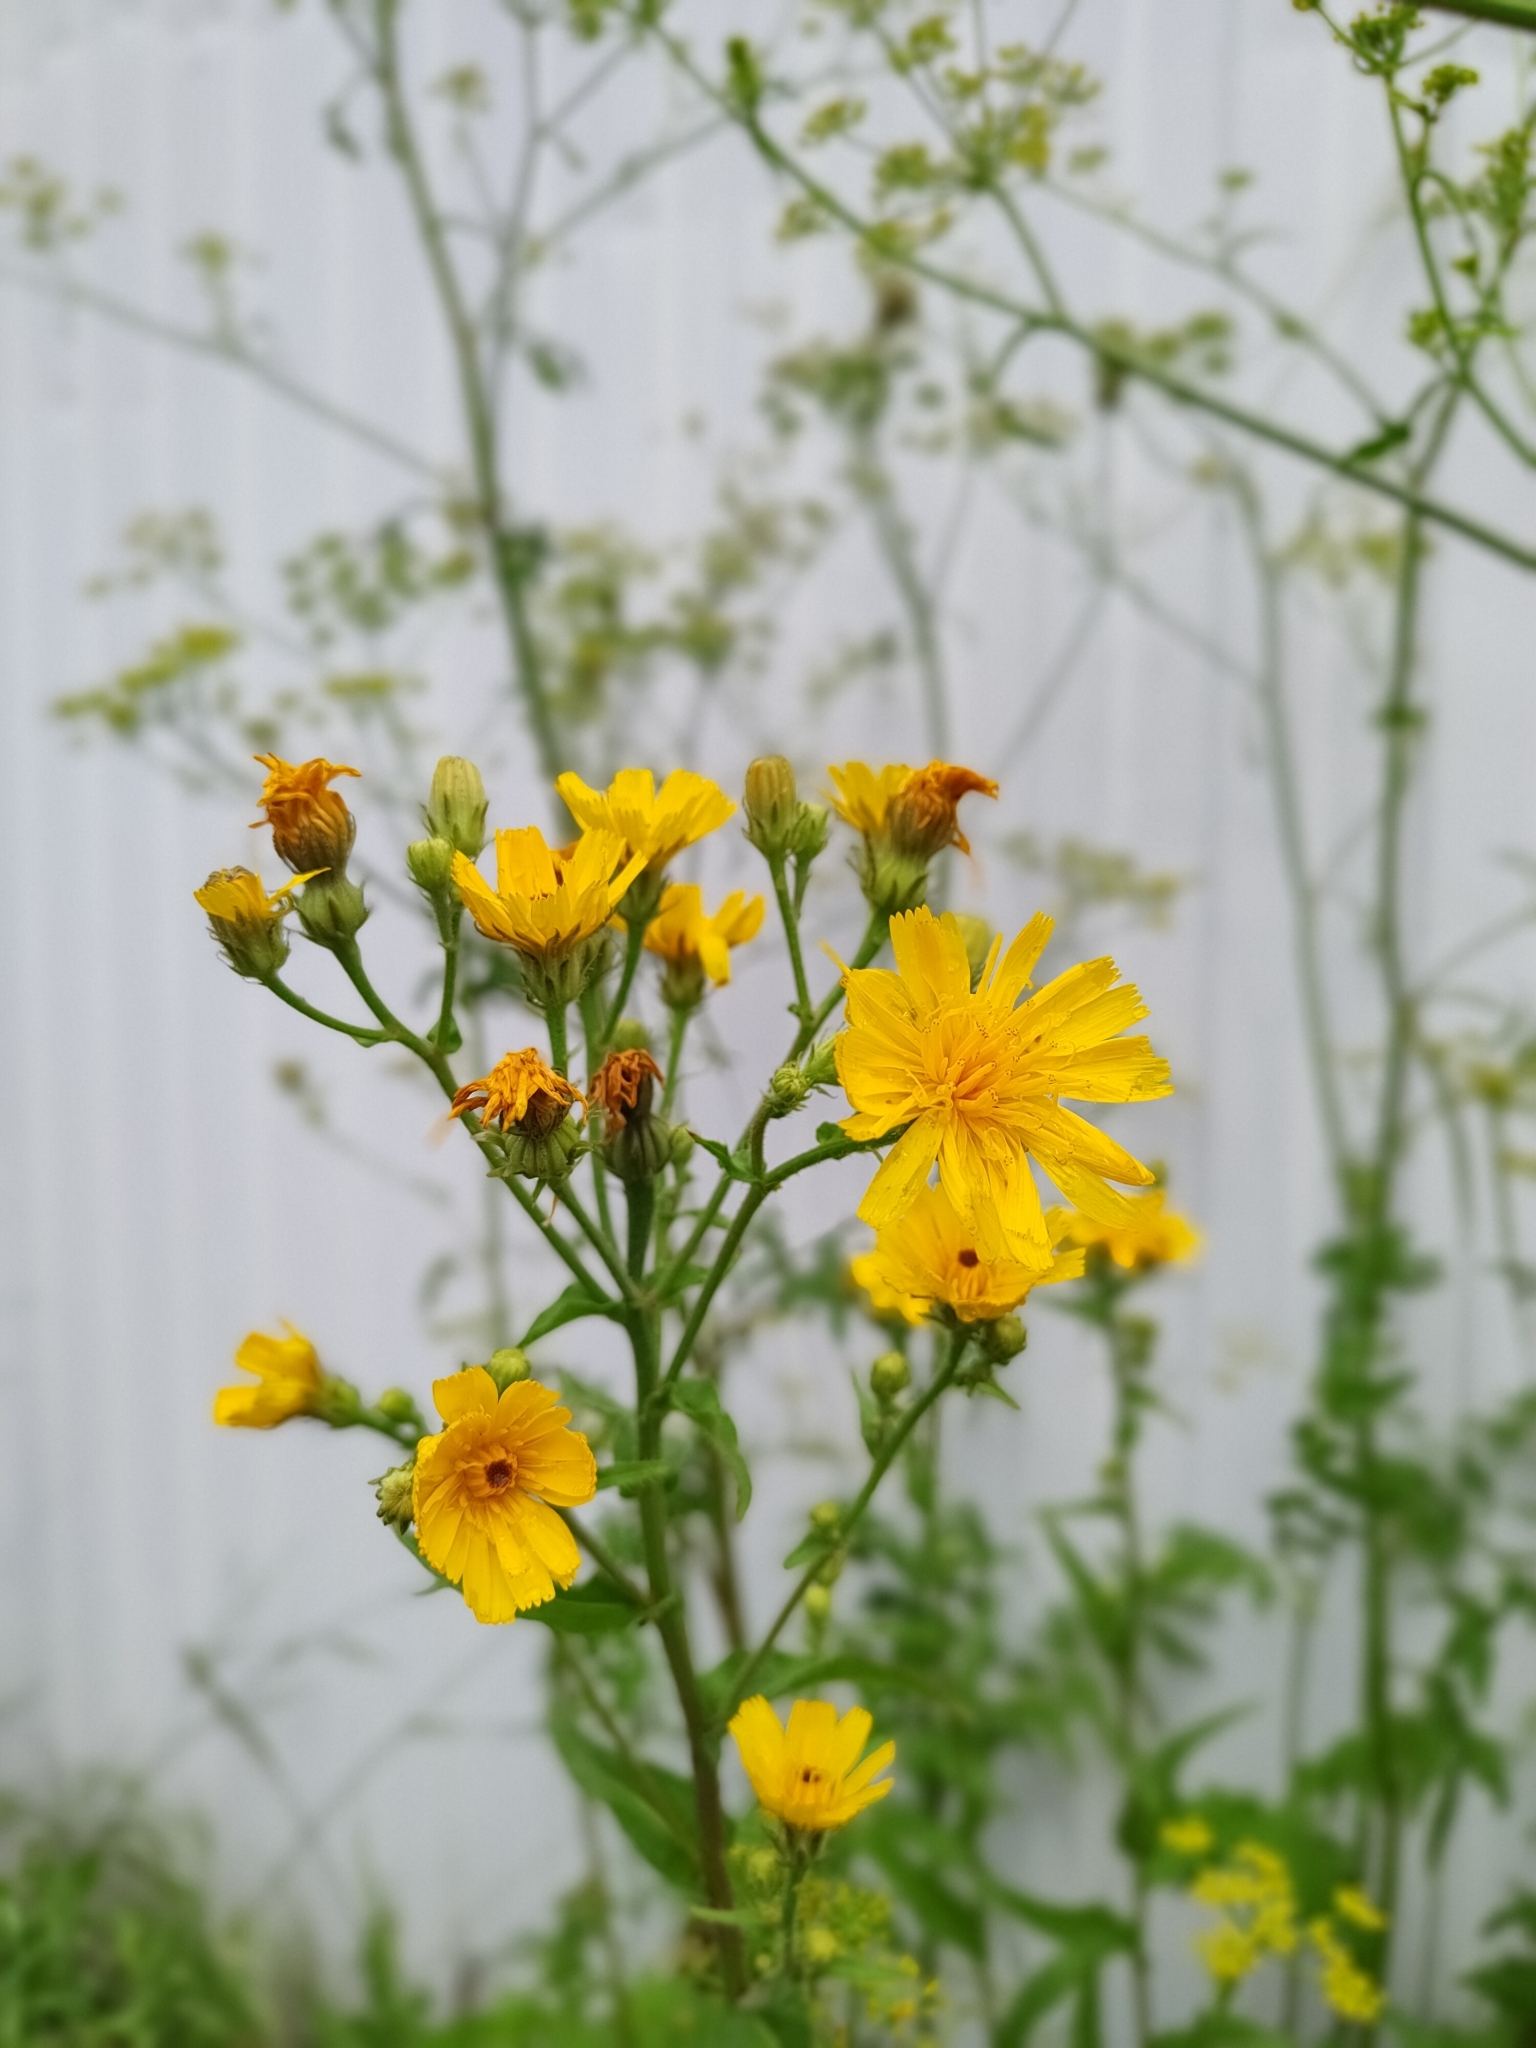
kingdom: Plantae
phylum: Tracheophyta
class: Magnoliopsida
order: Asterales
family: Asteraceae
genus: Picris
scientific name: Picris hieracioides
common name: Hawkweed oxtongue
